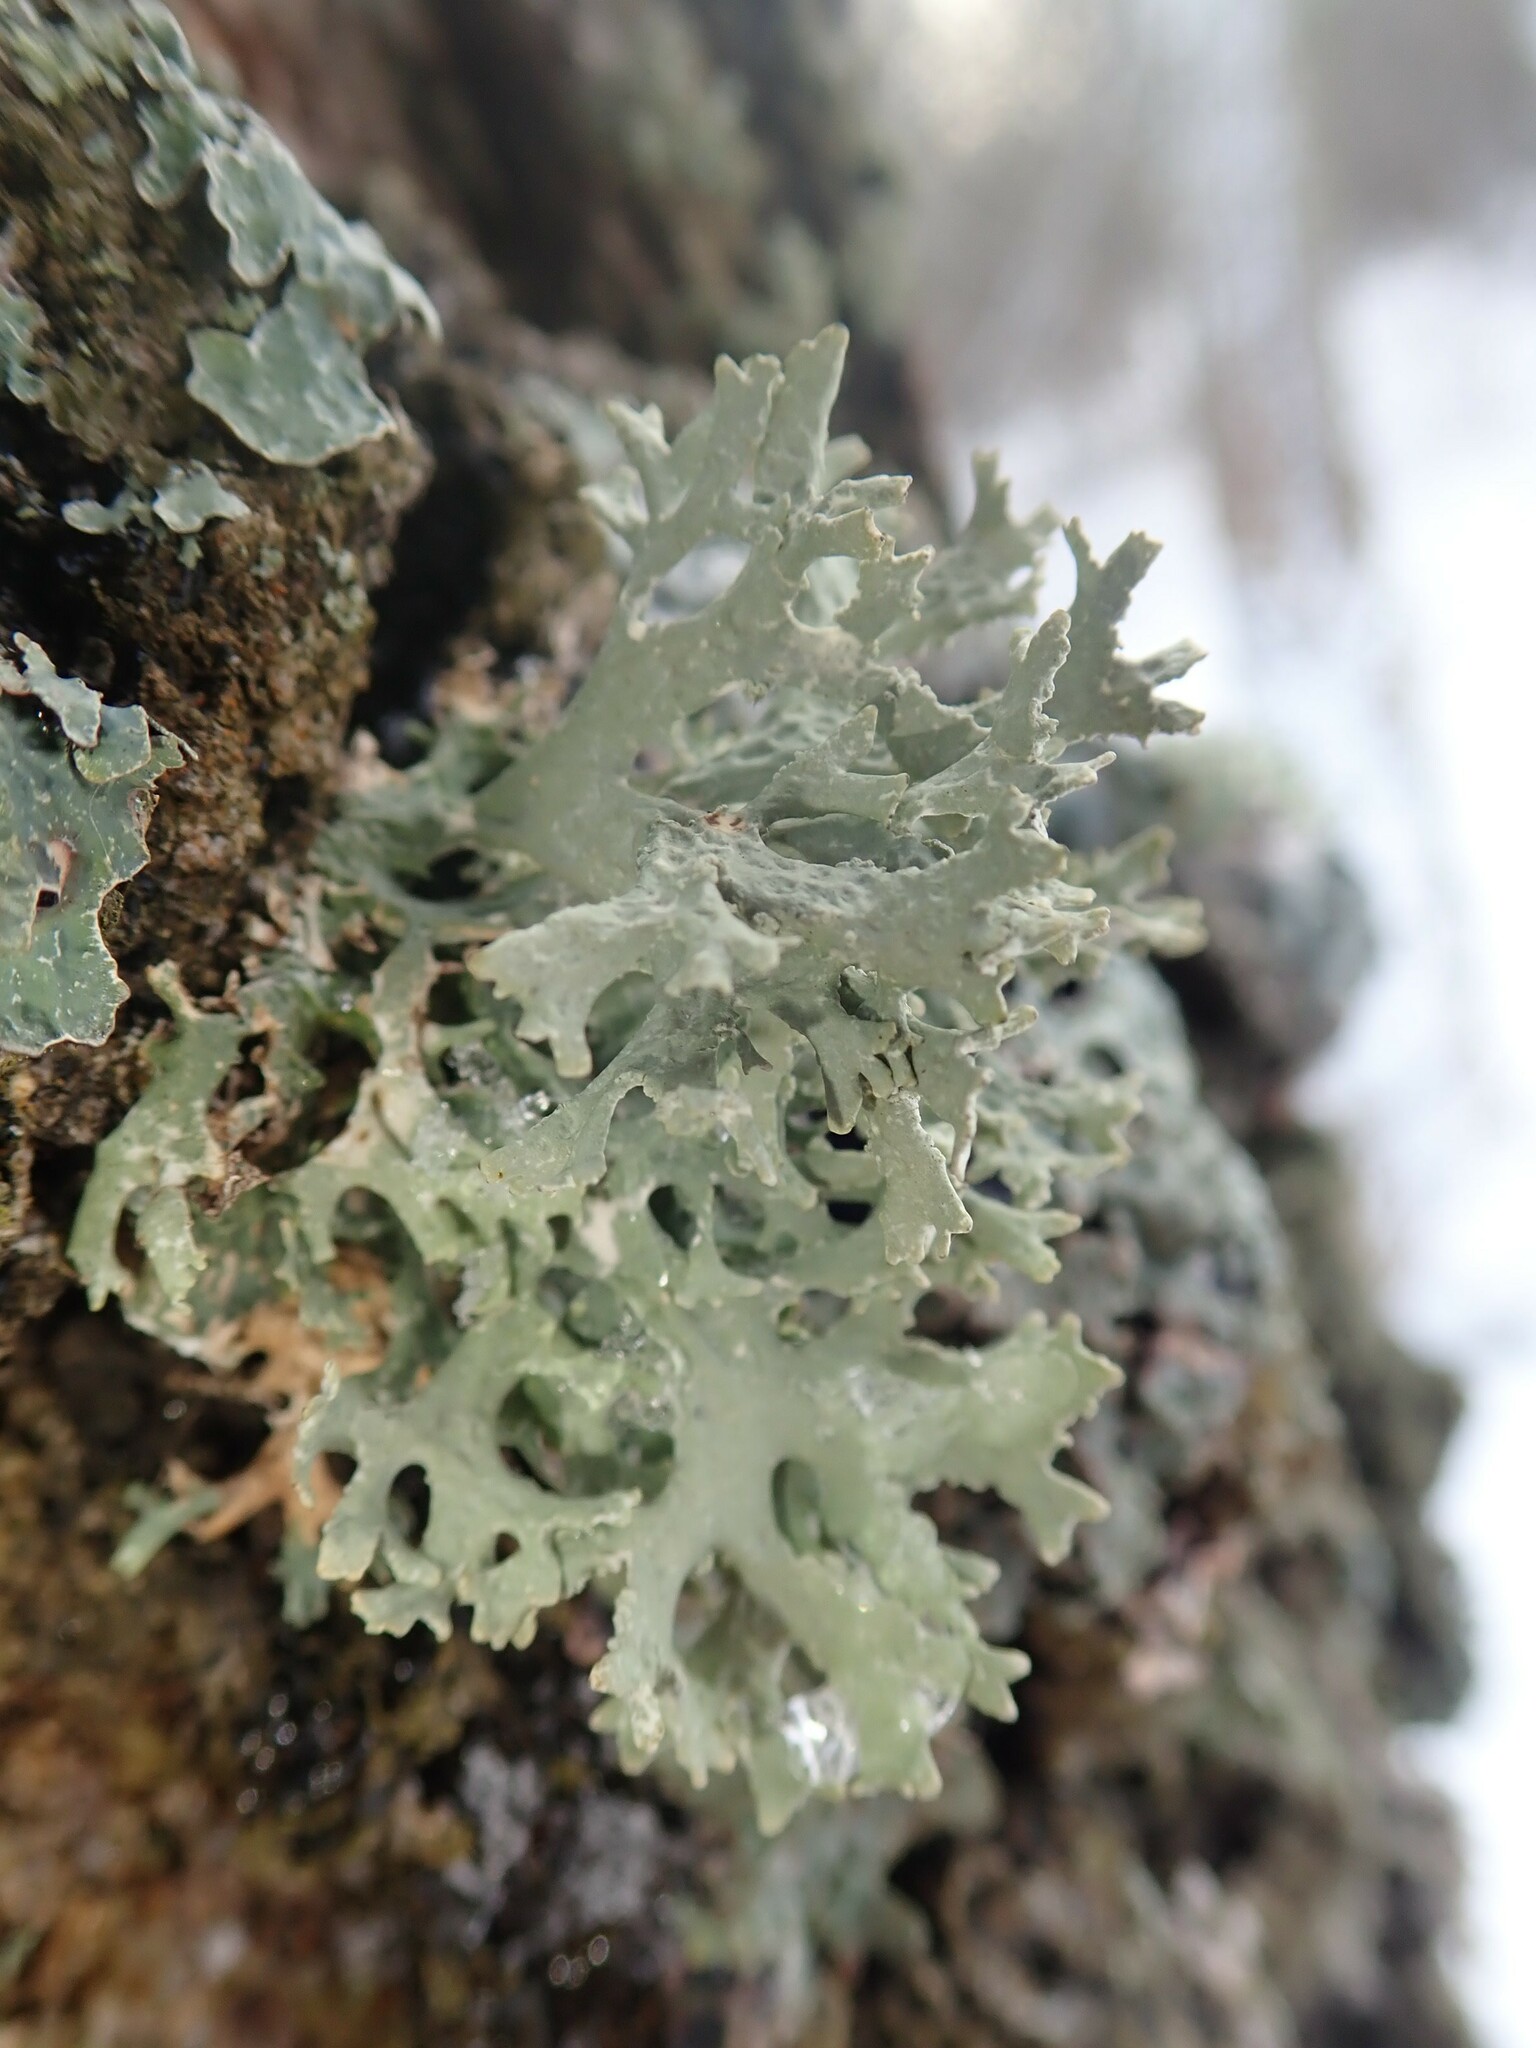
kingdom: Fungi
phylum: Ascomycota
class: Lecanoromycetes
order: Lecanorales
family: Parmeliaceae
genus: Evernia
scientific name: Evernia prunastri
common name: Oak moss
